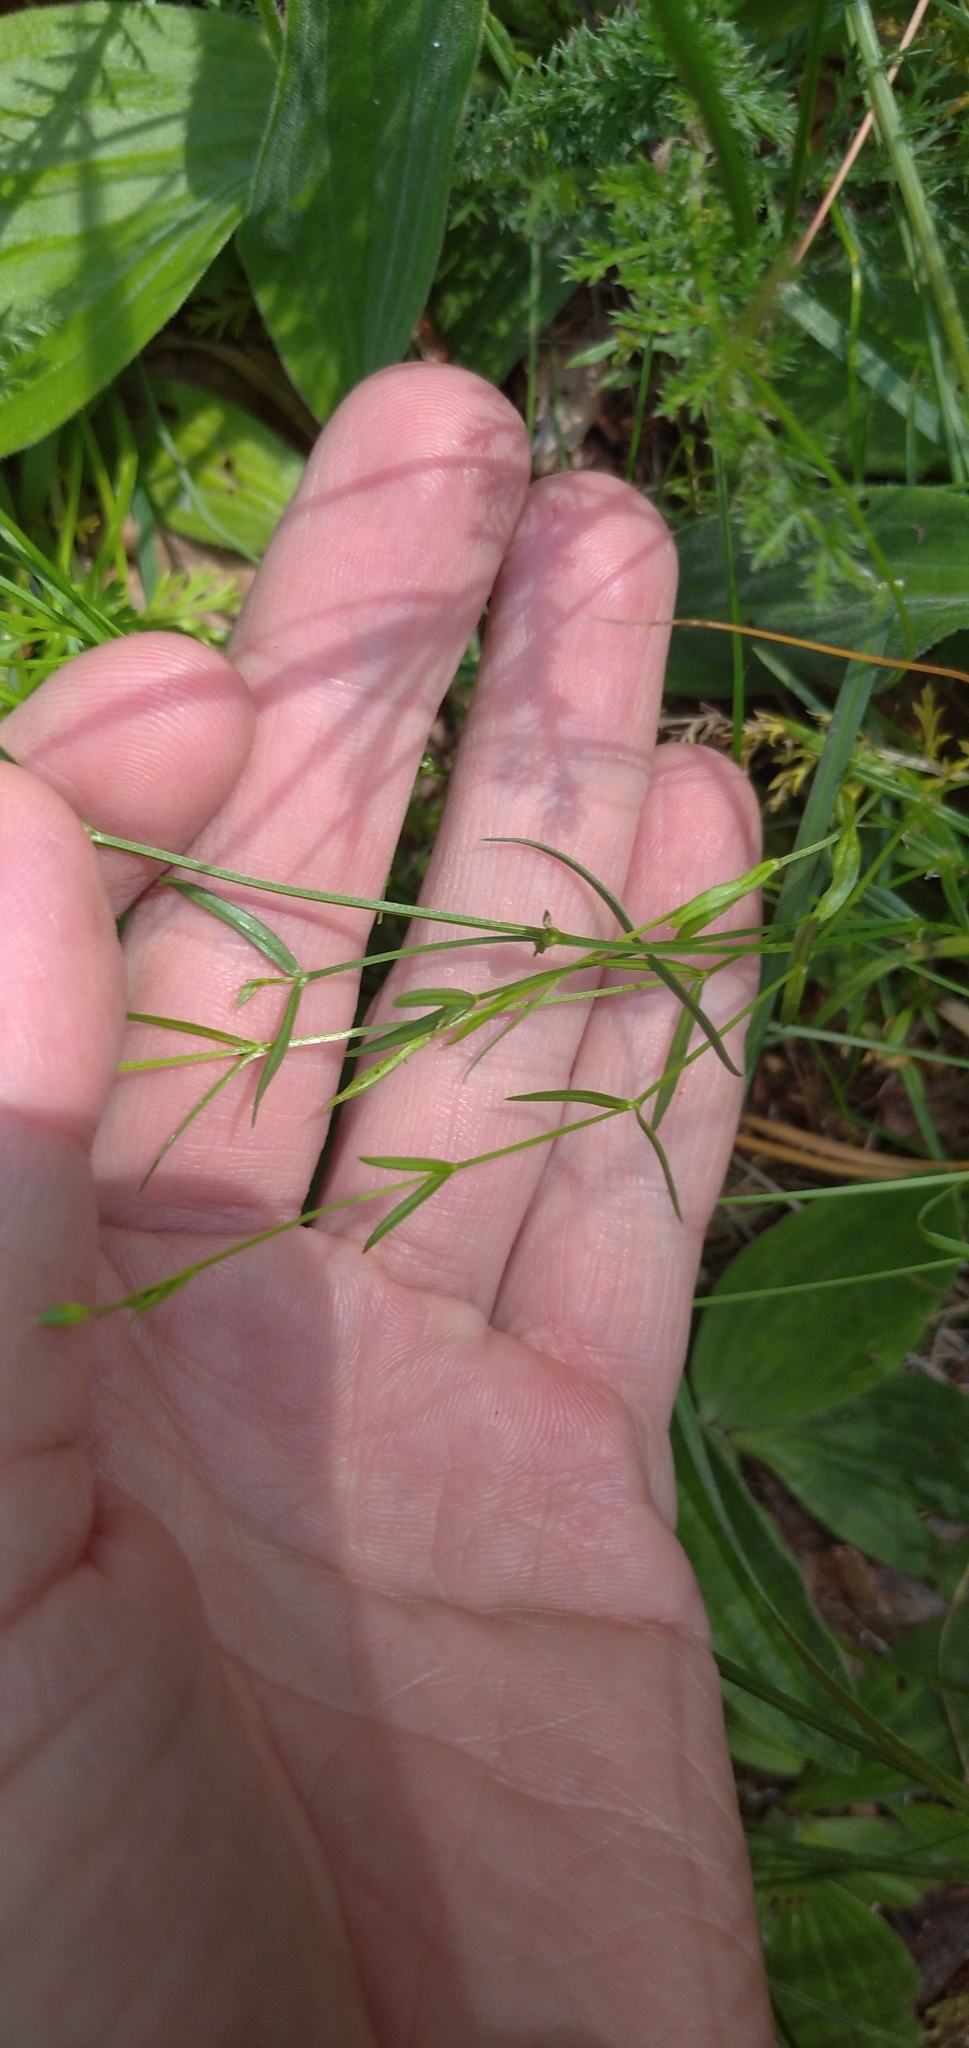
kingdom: Plantae
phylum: Tracheophyta
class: Magnoliopsida
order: Caryophyllales
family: Caryophyllaceae
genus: Stellaria
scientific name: Stellaria graminea
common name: Grass-like starwort
